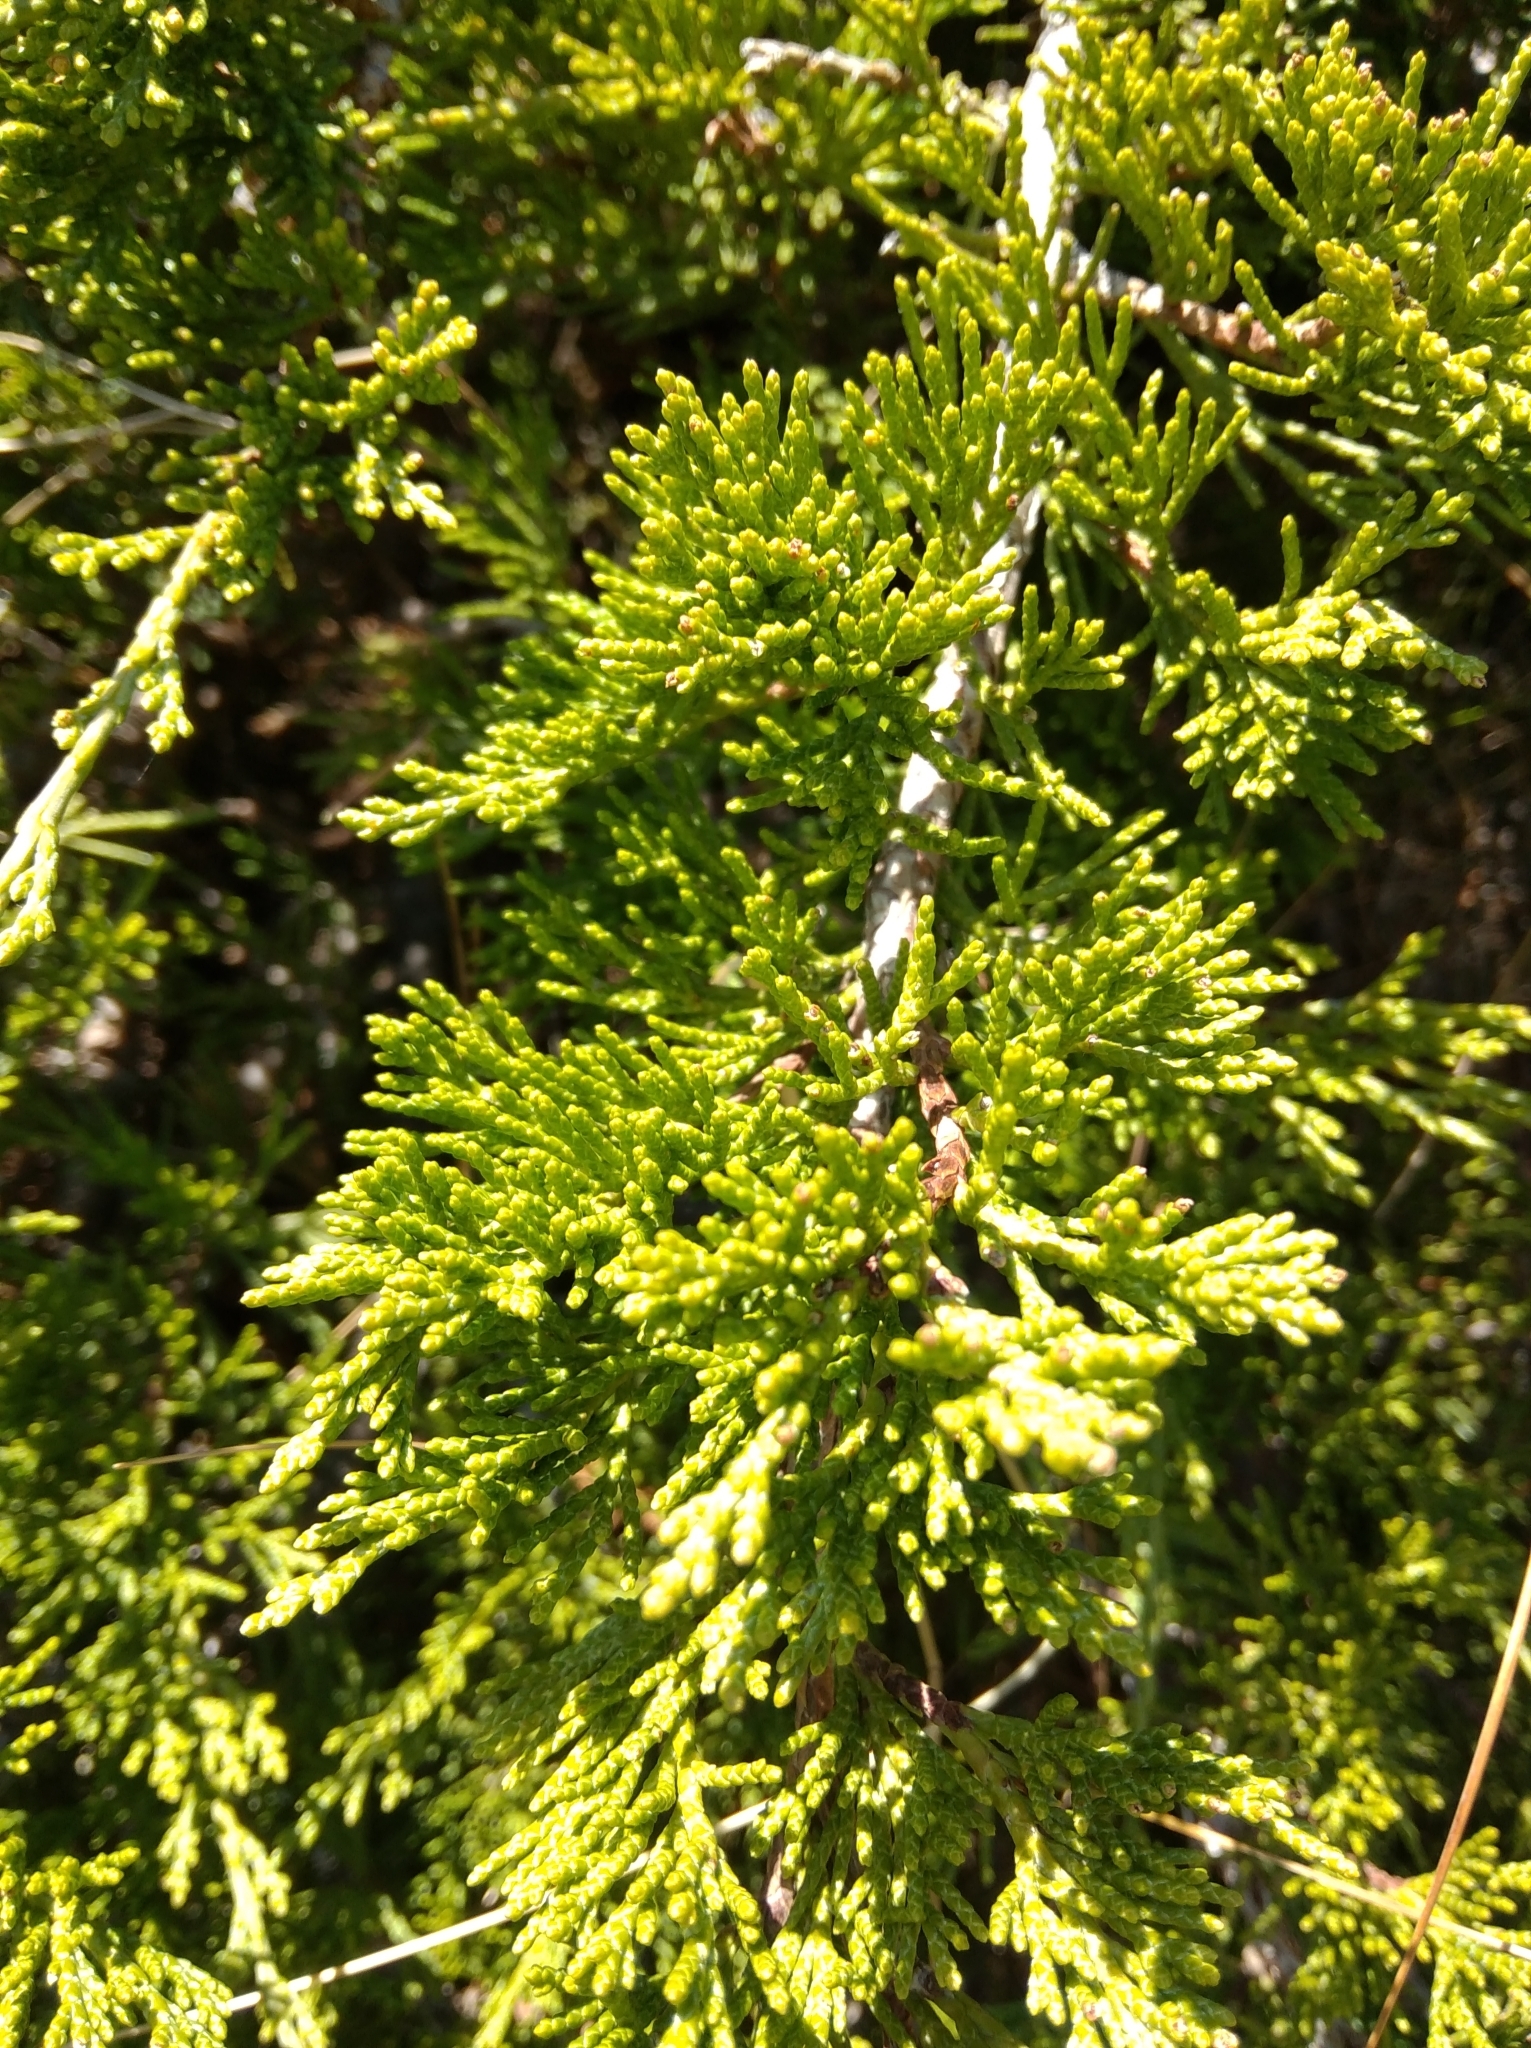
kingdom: Plantae
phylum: Tracheophyta
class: Pinopsida
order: Pinales
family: Cupressaceae
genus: Juniperus
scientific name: Juniperus sabina
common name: Savin
